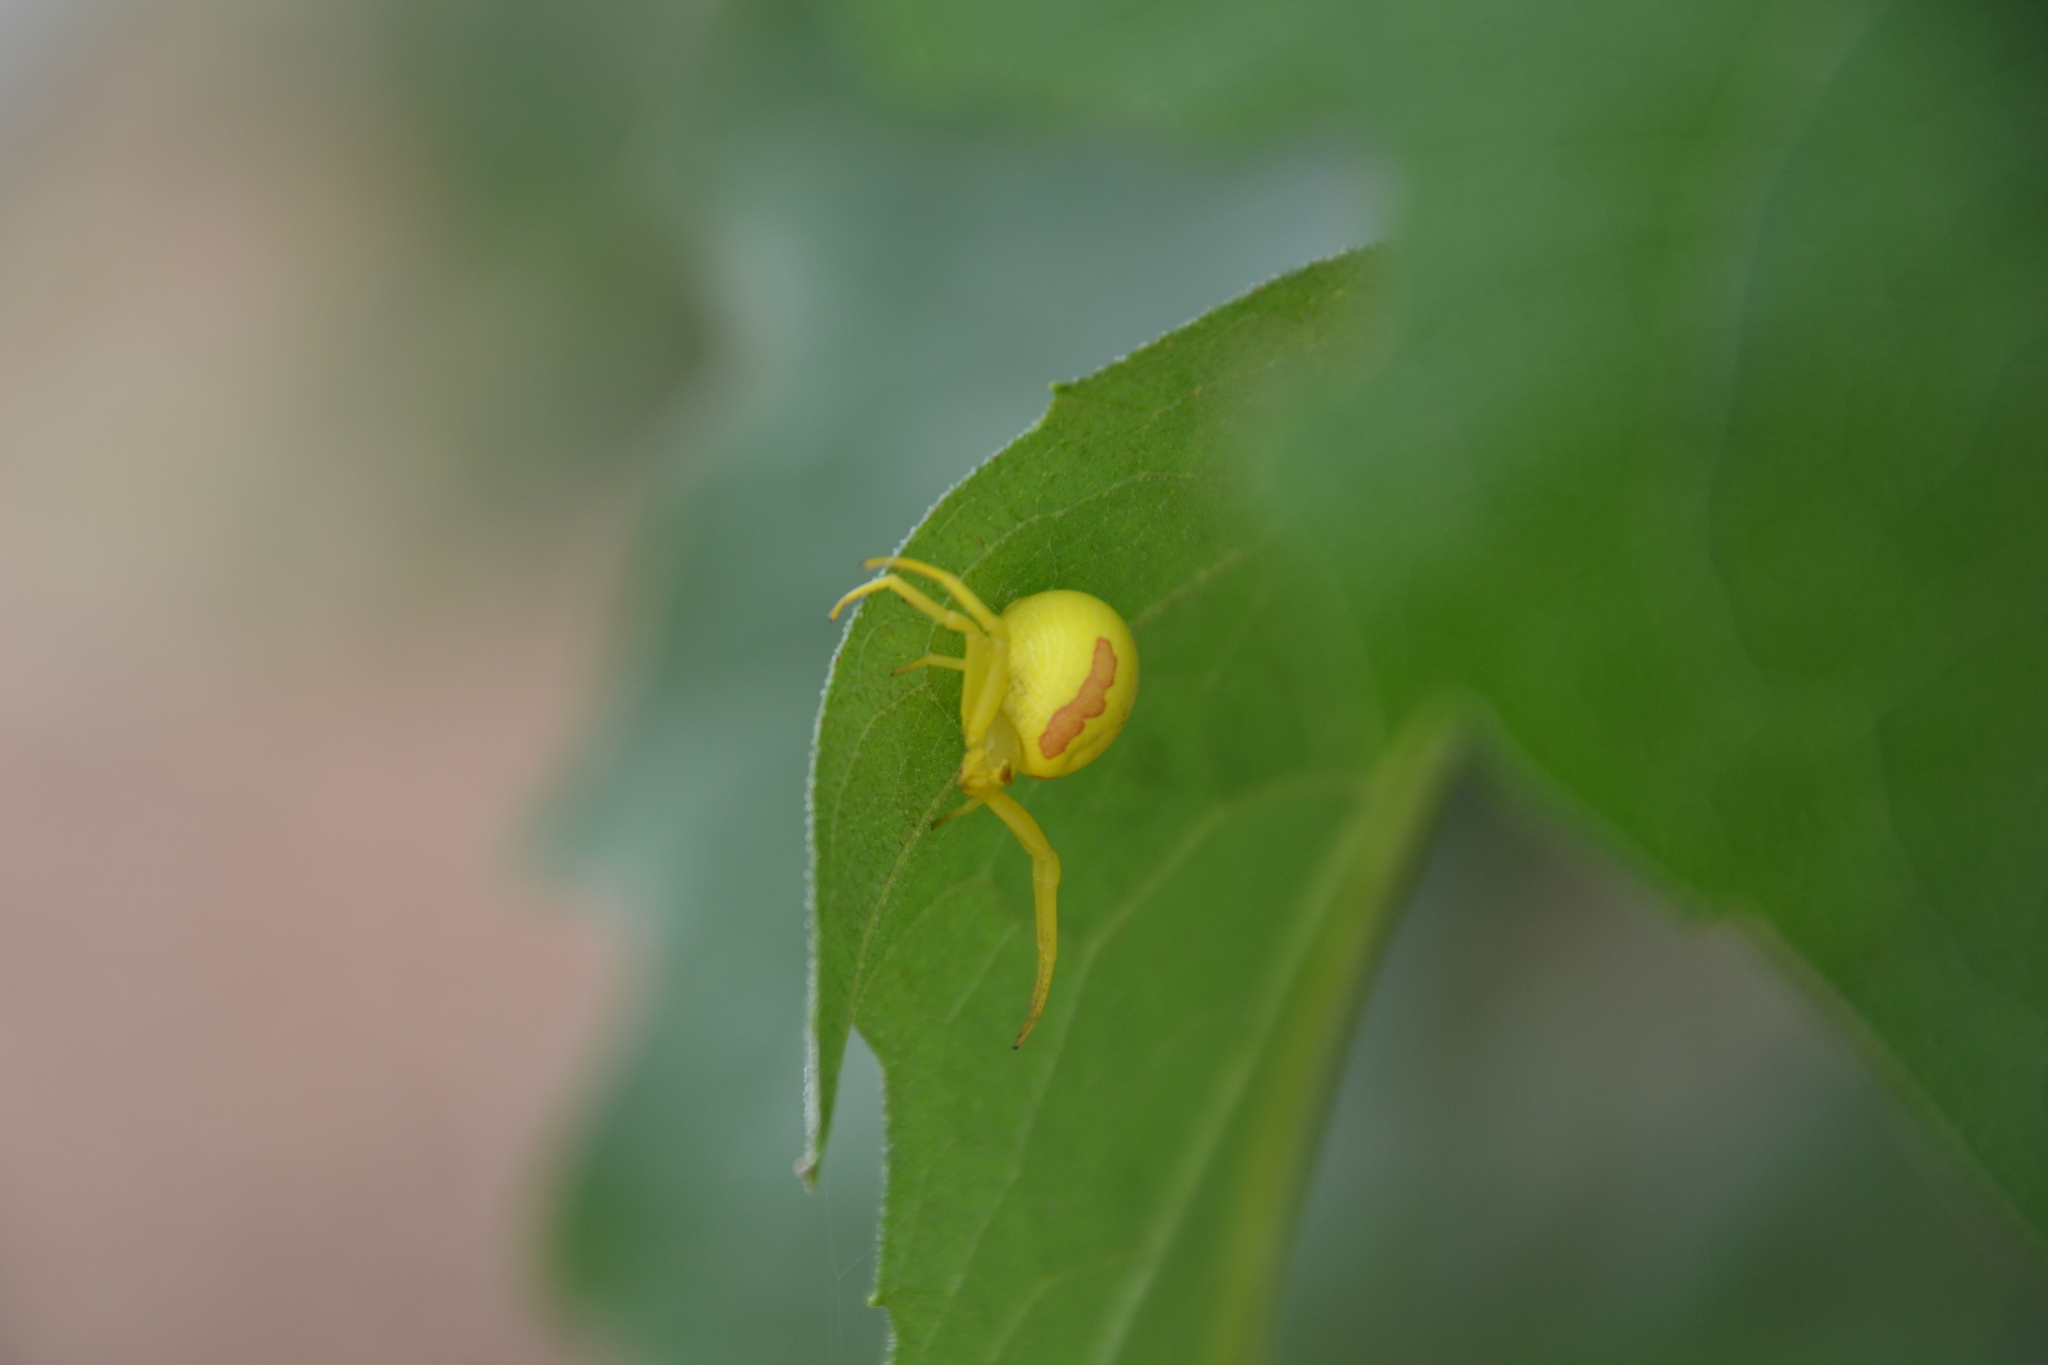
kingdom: Animalia
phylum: Arthropoda
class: Arachnida
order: Araneae
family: Thomisidae
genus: Misumena
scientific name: Misumena vatia
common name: Goldenrod crab spider
